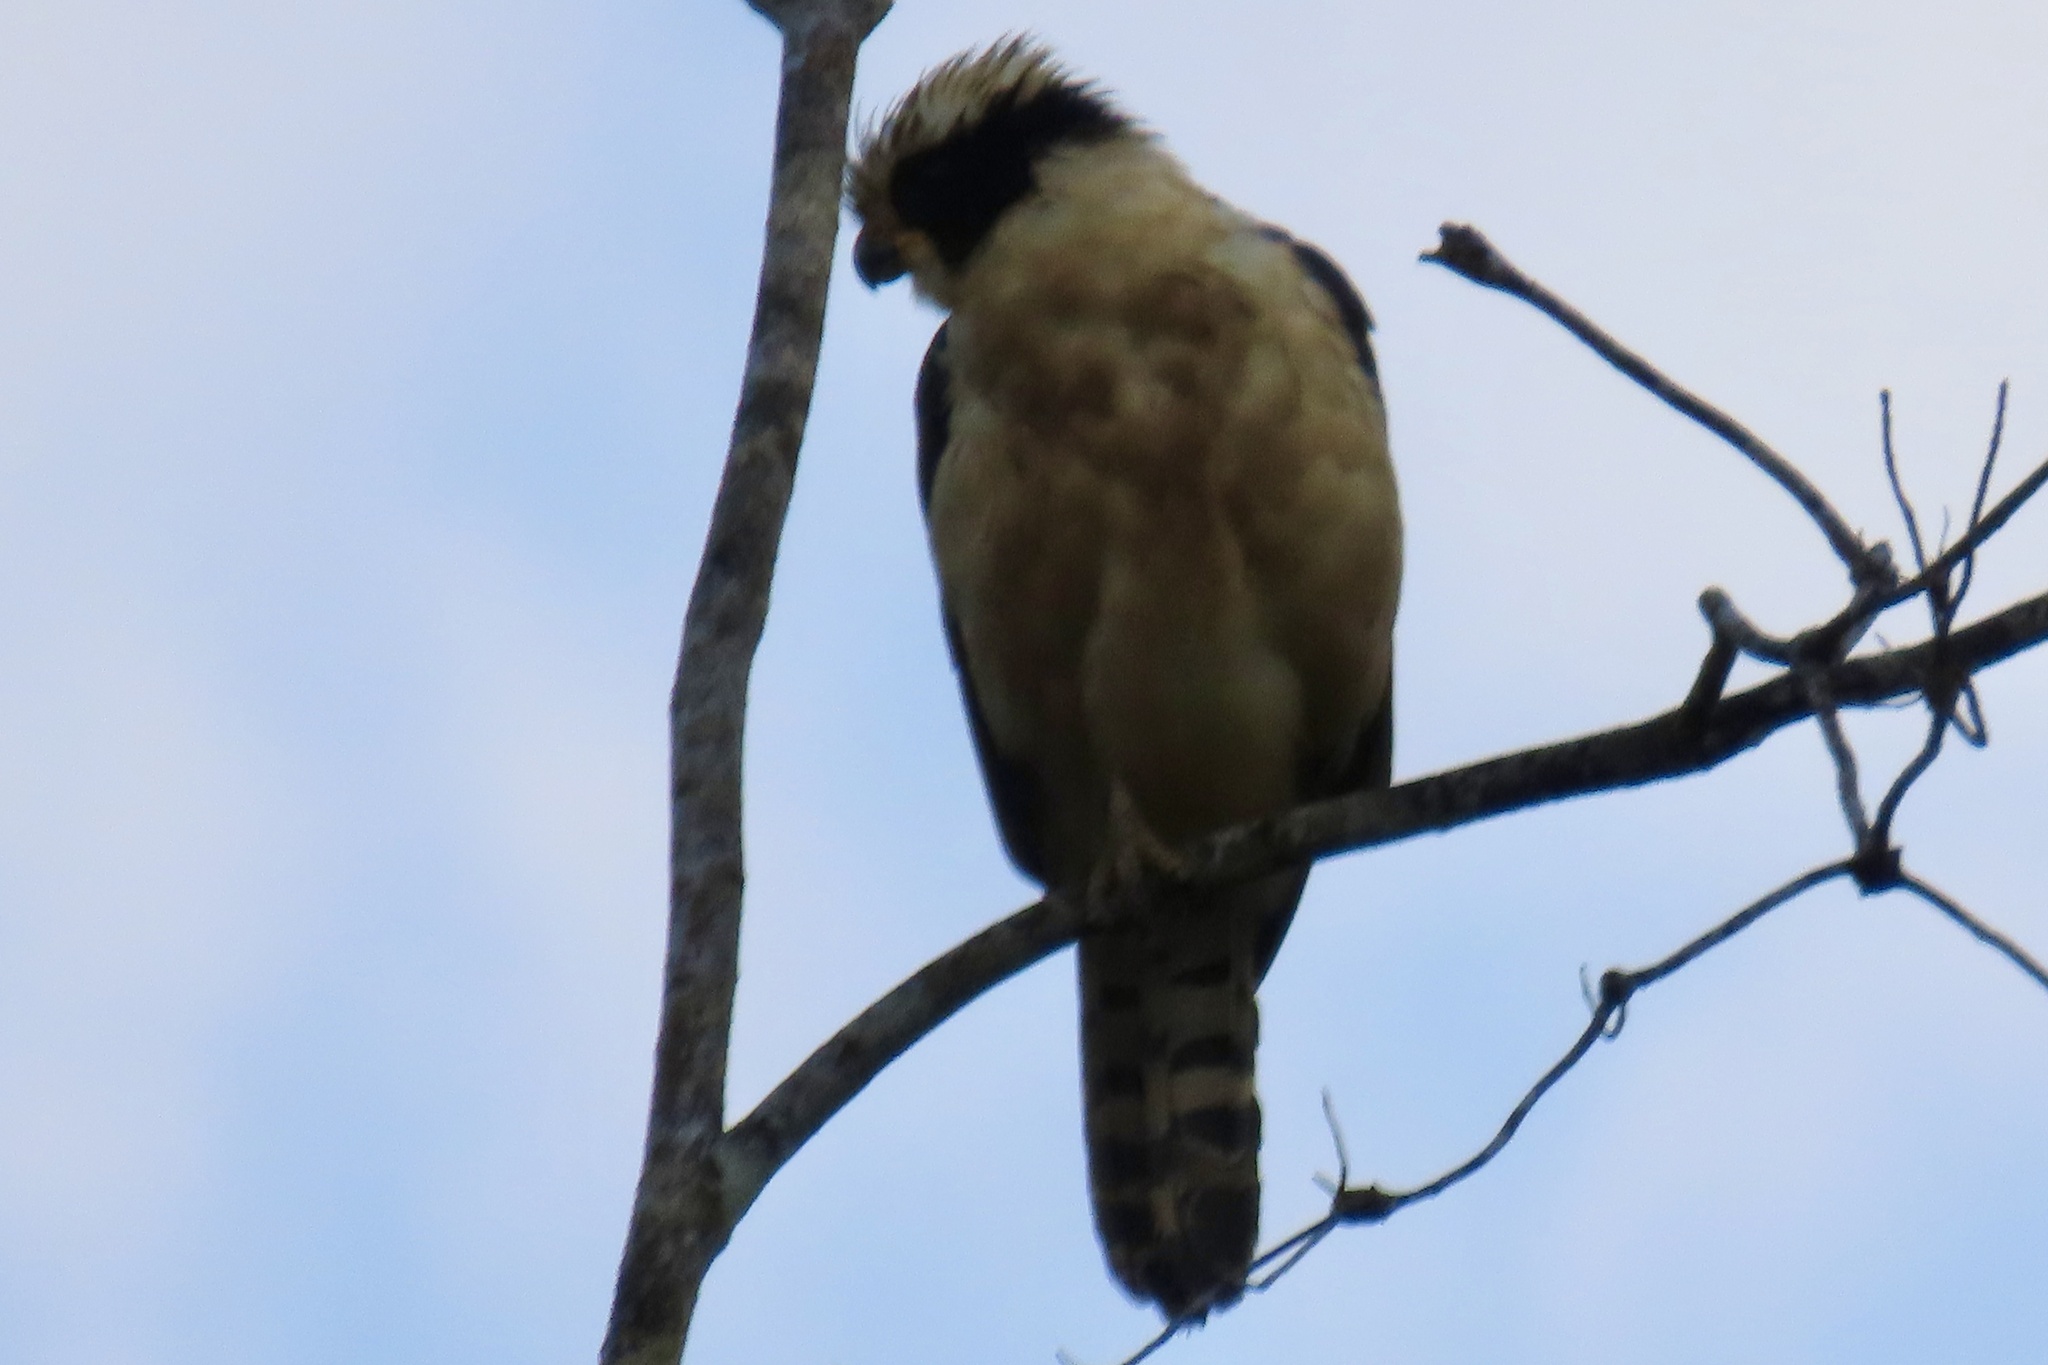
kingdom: Animalia
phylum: Chordata
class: Aves
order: Falconiformes
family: Falconidae
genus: Herpetotheres
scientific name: Herpetotheres cachinnans
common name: Laughing falcon
